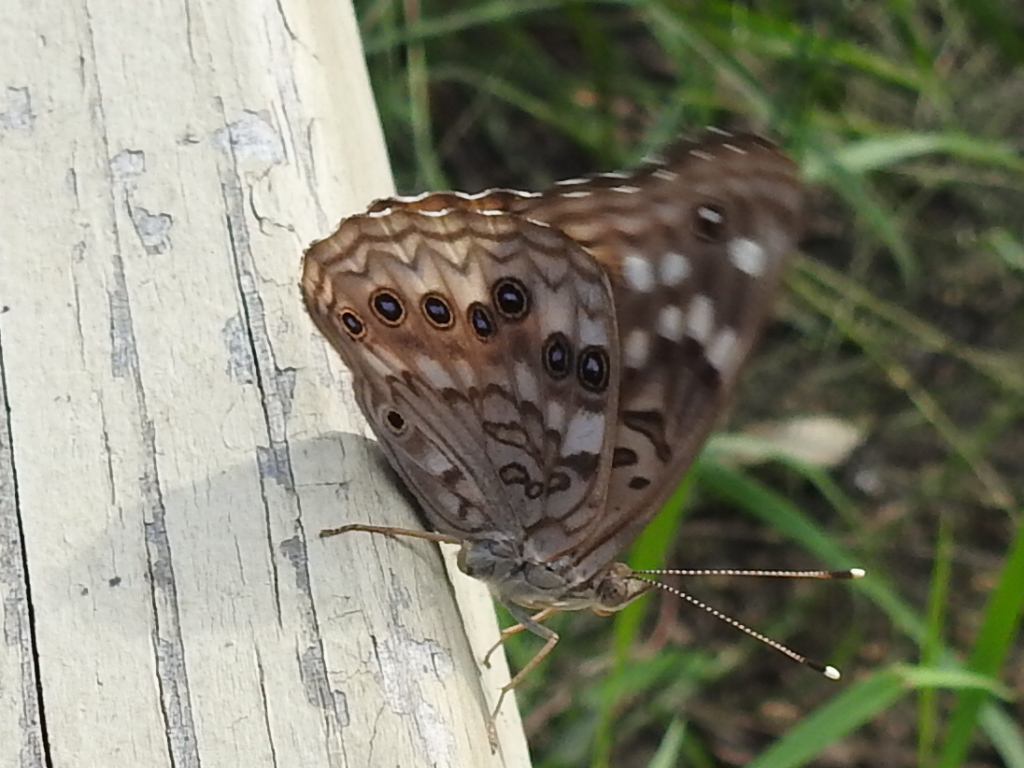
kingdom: Animalia
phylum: Arthropoda
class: Insecta
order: Lepidoptera
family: Nymphalidae
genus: Asterocampa
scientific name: Asterocampa celtis
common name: Hackberry emperor
